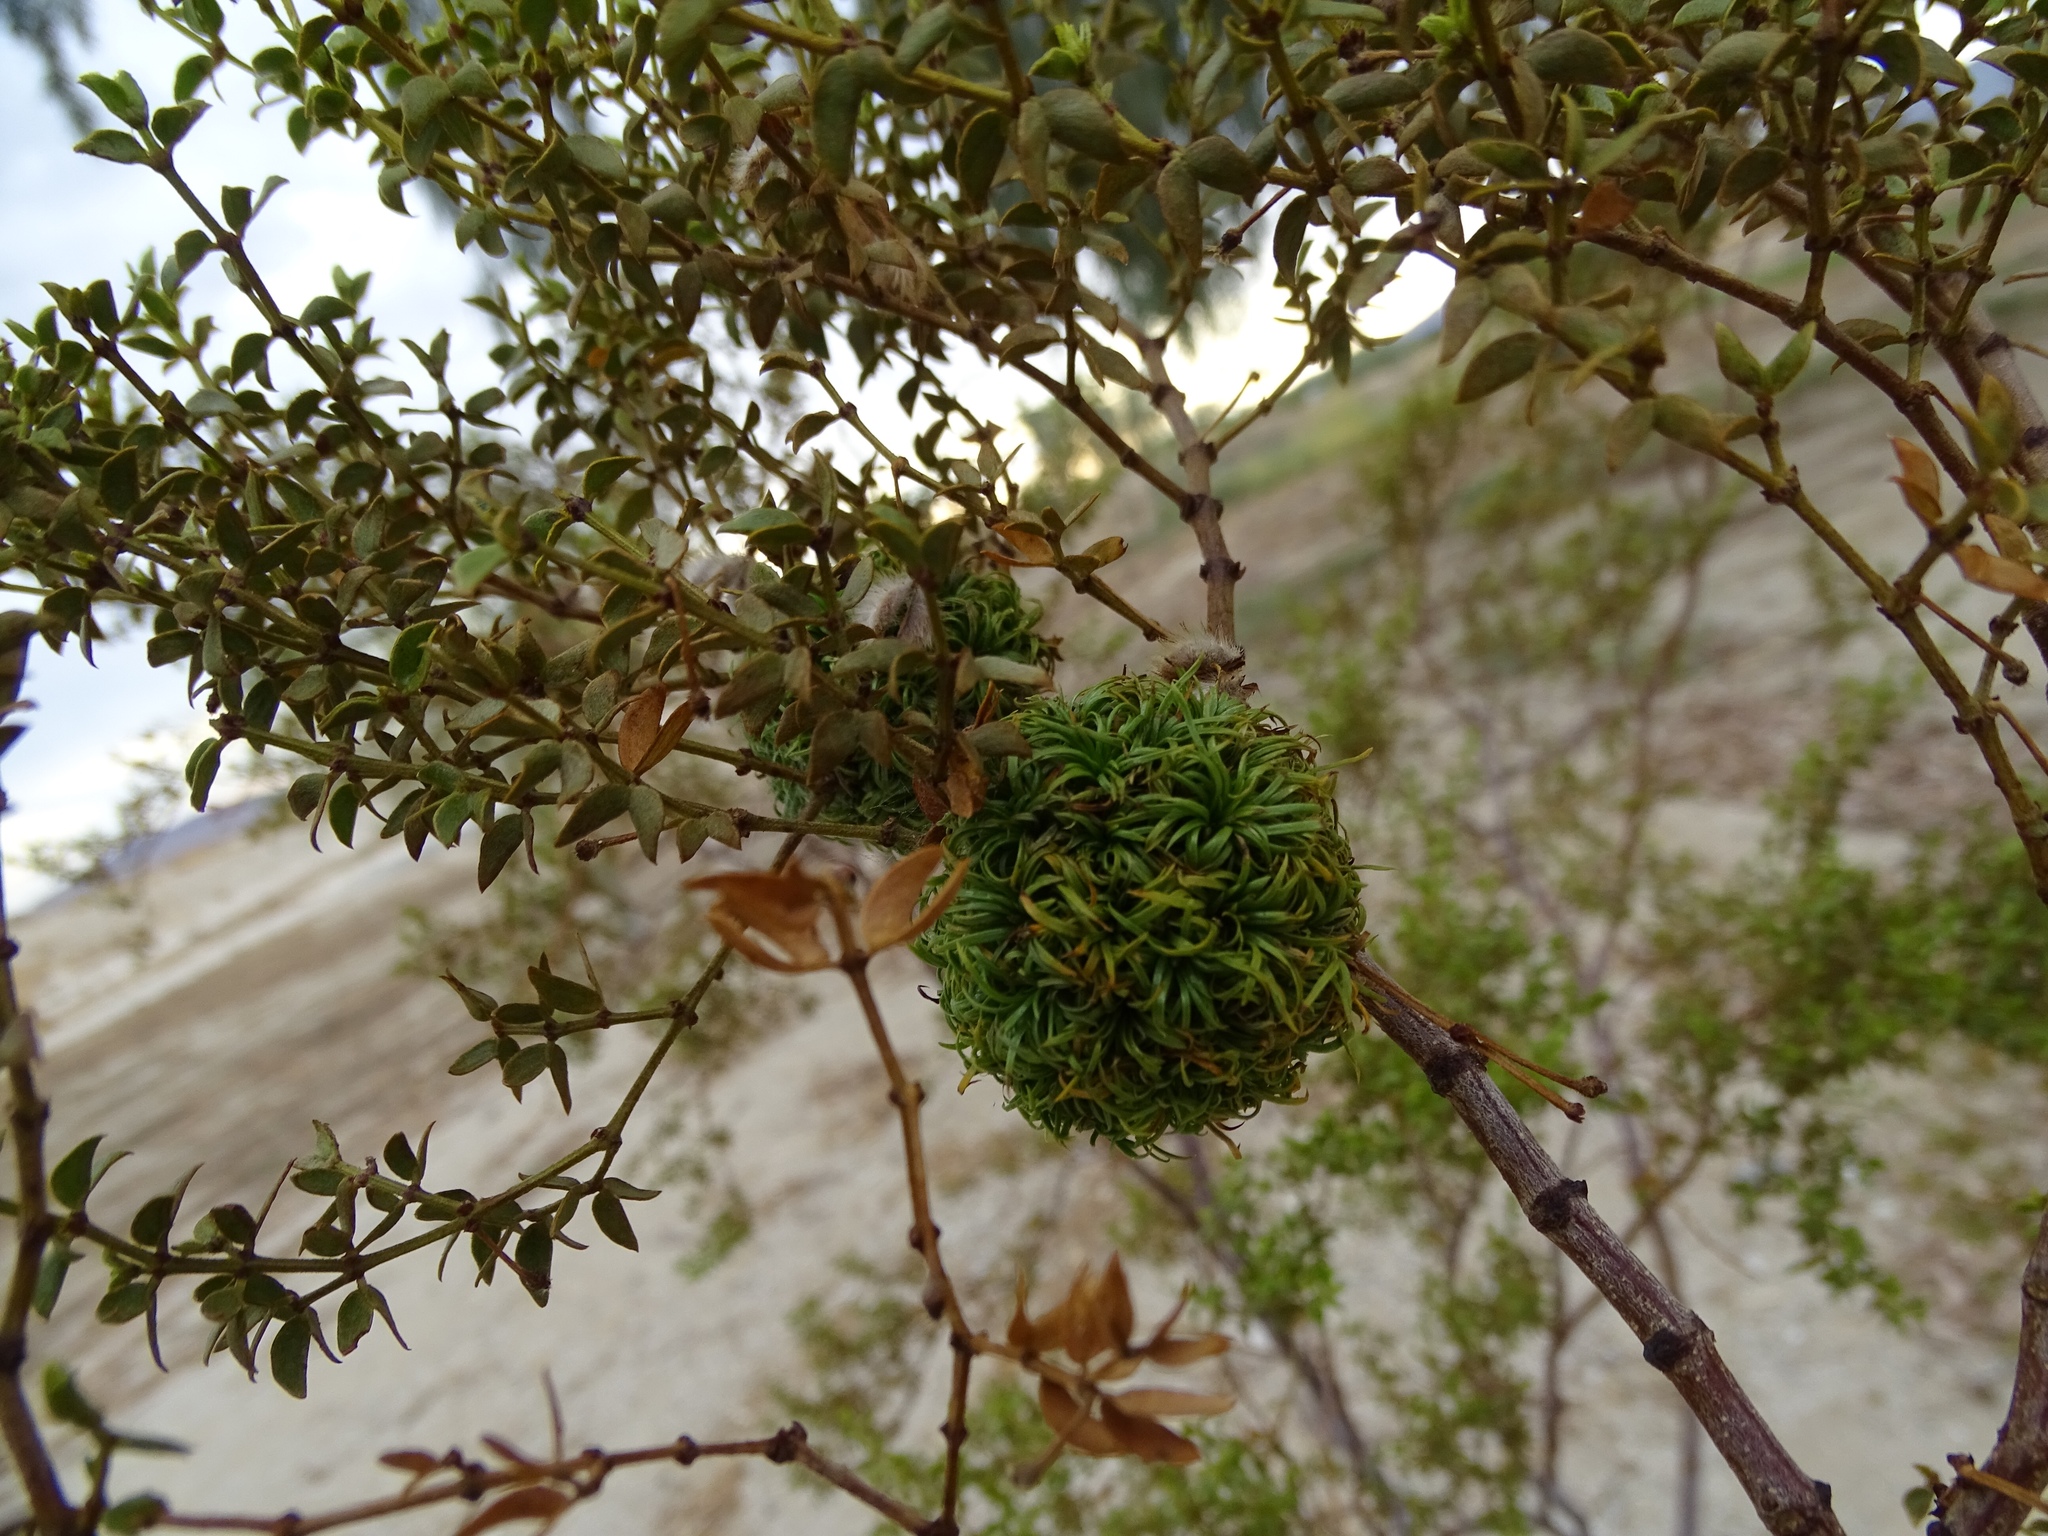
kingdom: Animalia
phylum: Arthropoda
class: Insecta
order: Diptera
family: Cecidomyiidae
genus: Asphondylia
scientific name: Asphondylia auripila
